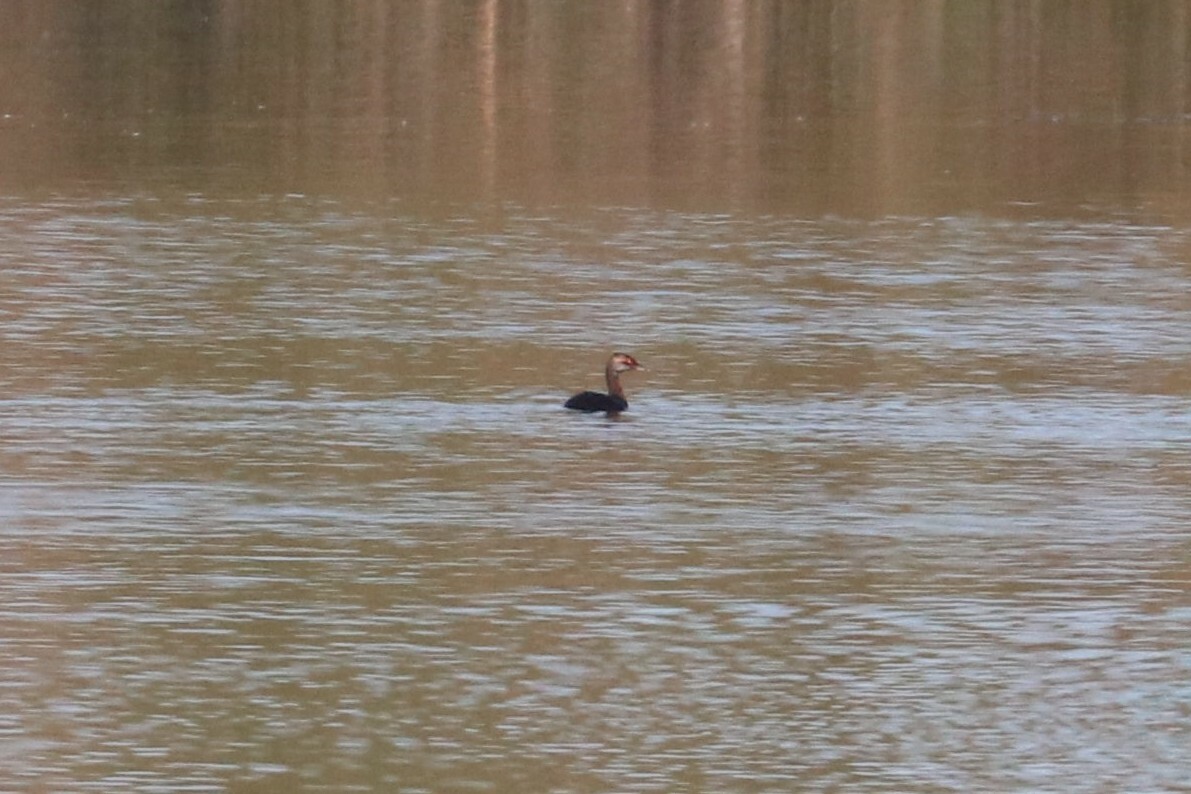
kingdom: Animalia
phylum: Chordata
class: Aves
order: Podicipediformes
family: Podicipedidae
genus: Podiceps
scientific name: Podiceps auritus
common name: Horned grebe
